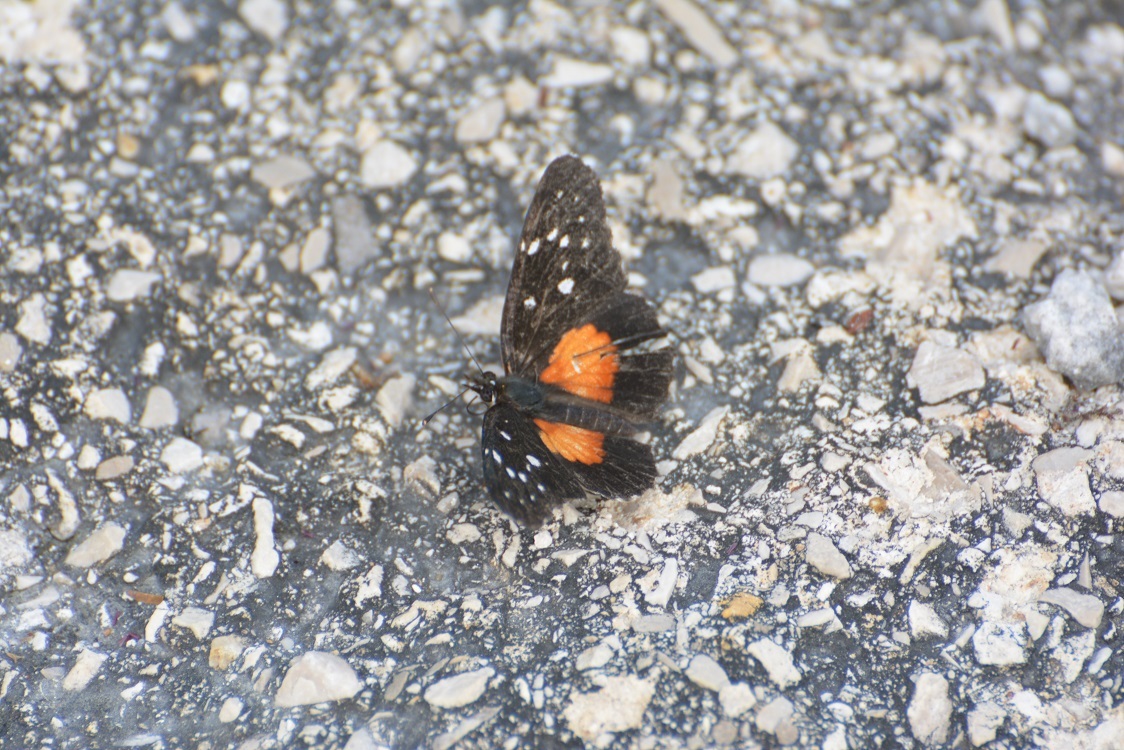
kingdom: Animalia
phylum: Arthropoda
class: Insecta
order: Lepidoptera
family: Nymphalidae
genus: Chlosyne
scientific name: Chlosyne rosita
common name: Rosita patch
